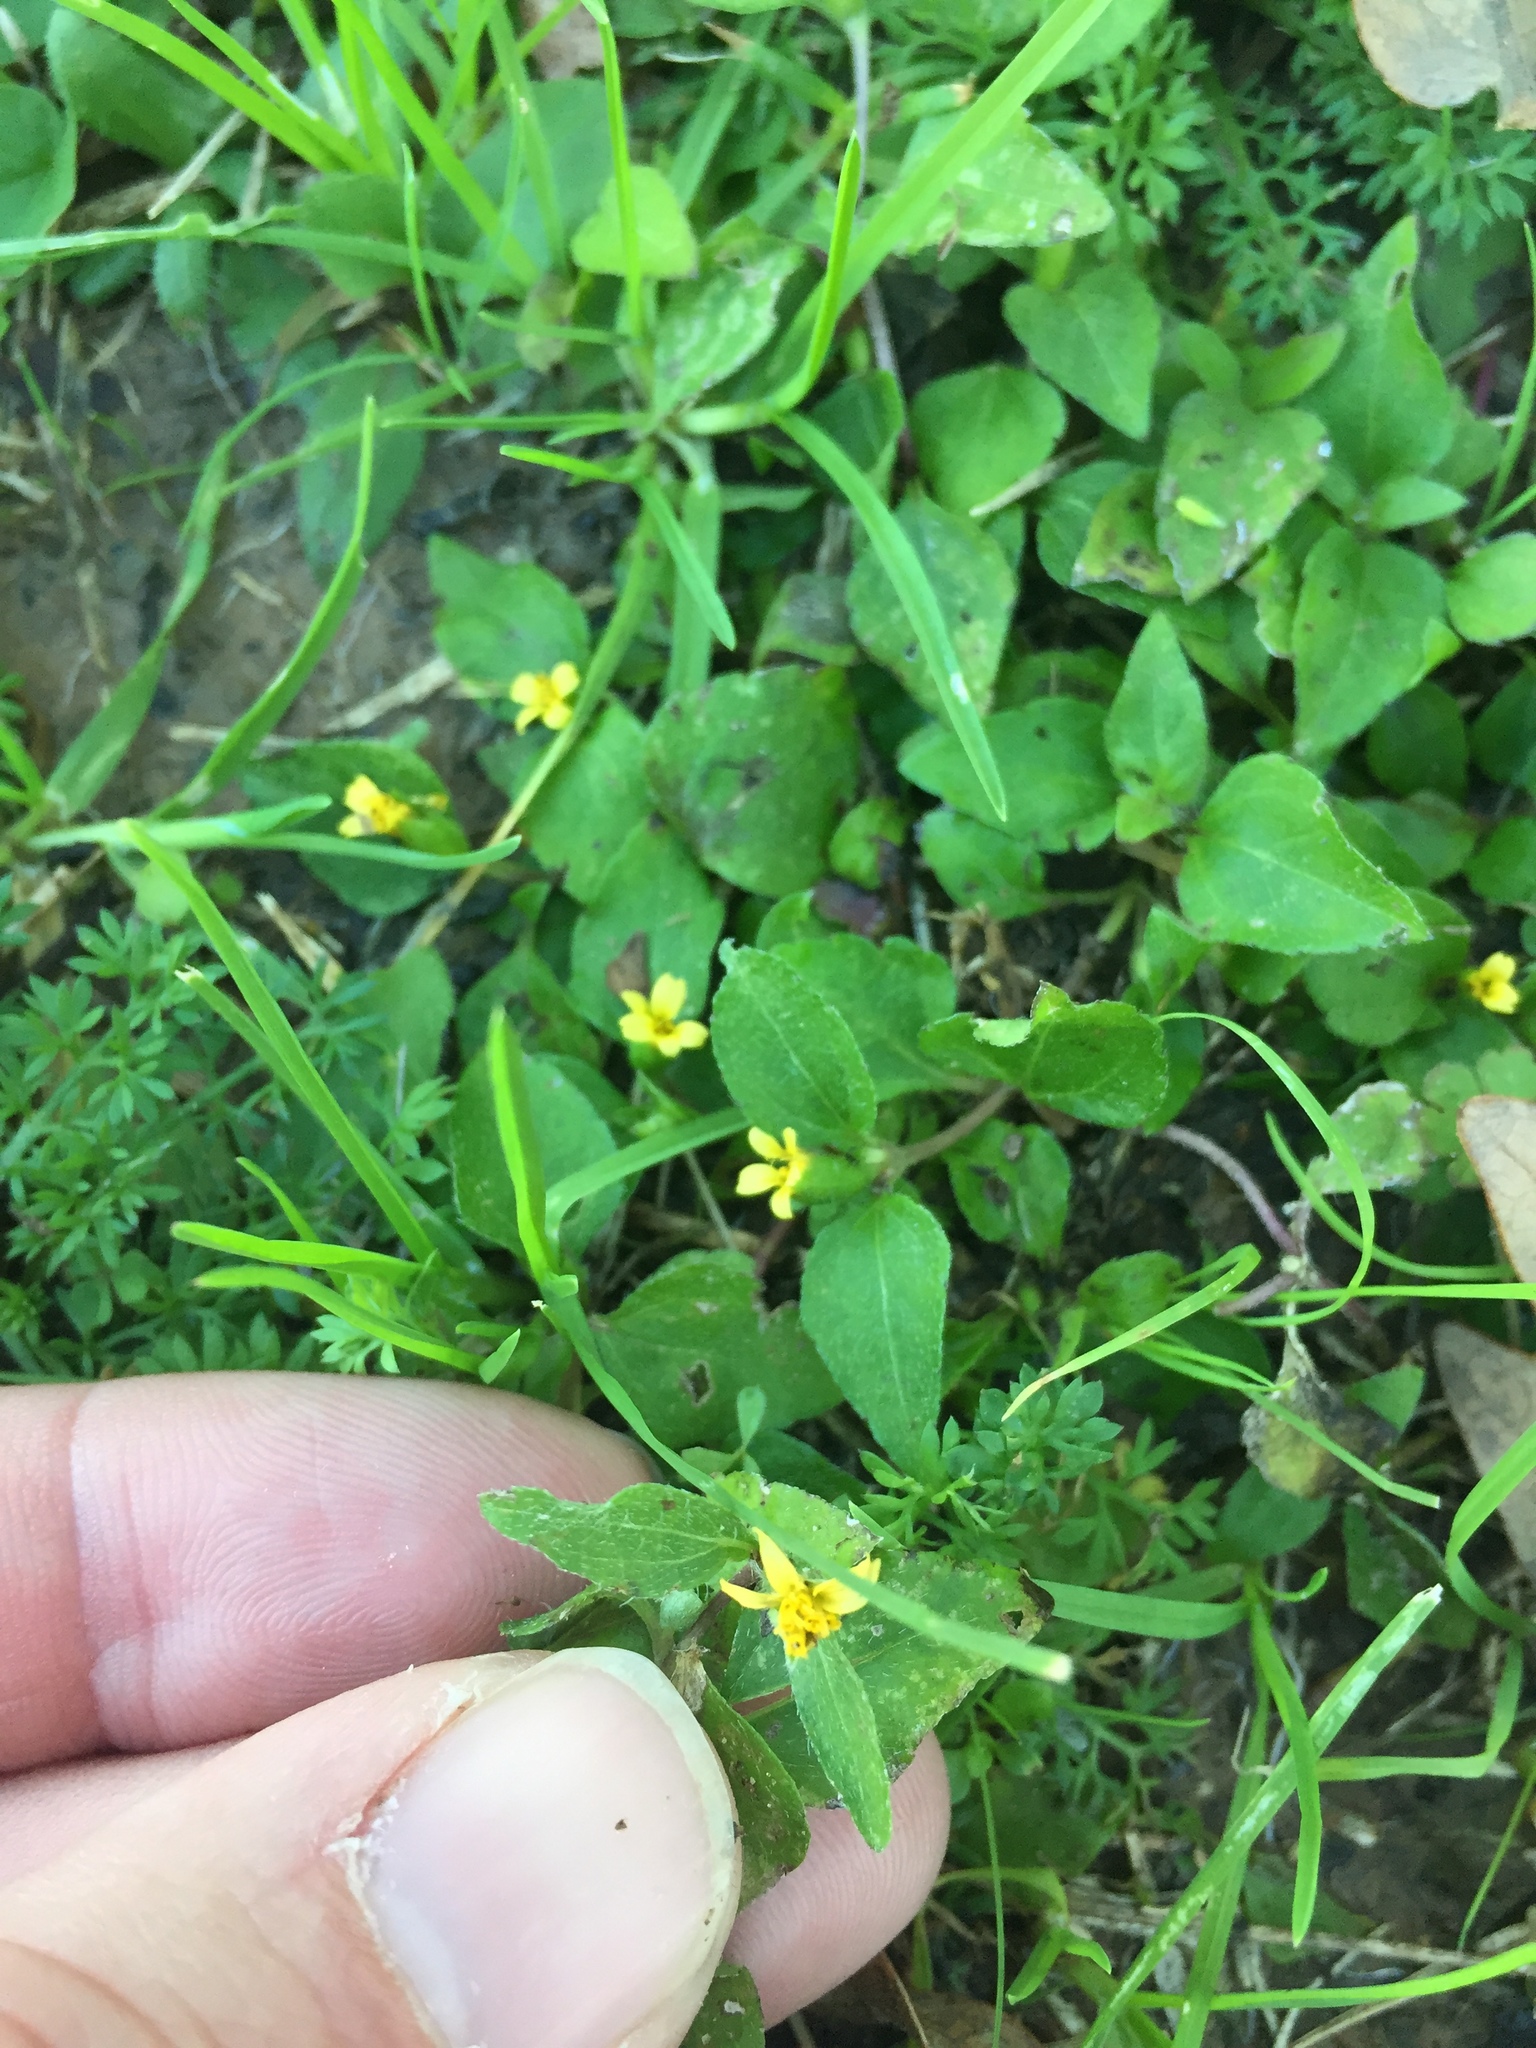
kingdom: Plantae
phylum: Tracheophyta
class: Magnoliopsida
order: Asterales
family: Asteraceae
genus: Calyptocarpus
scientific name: Calyptocarpus vialis
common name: Straggler daisy
